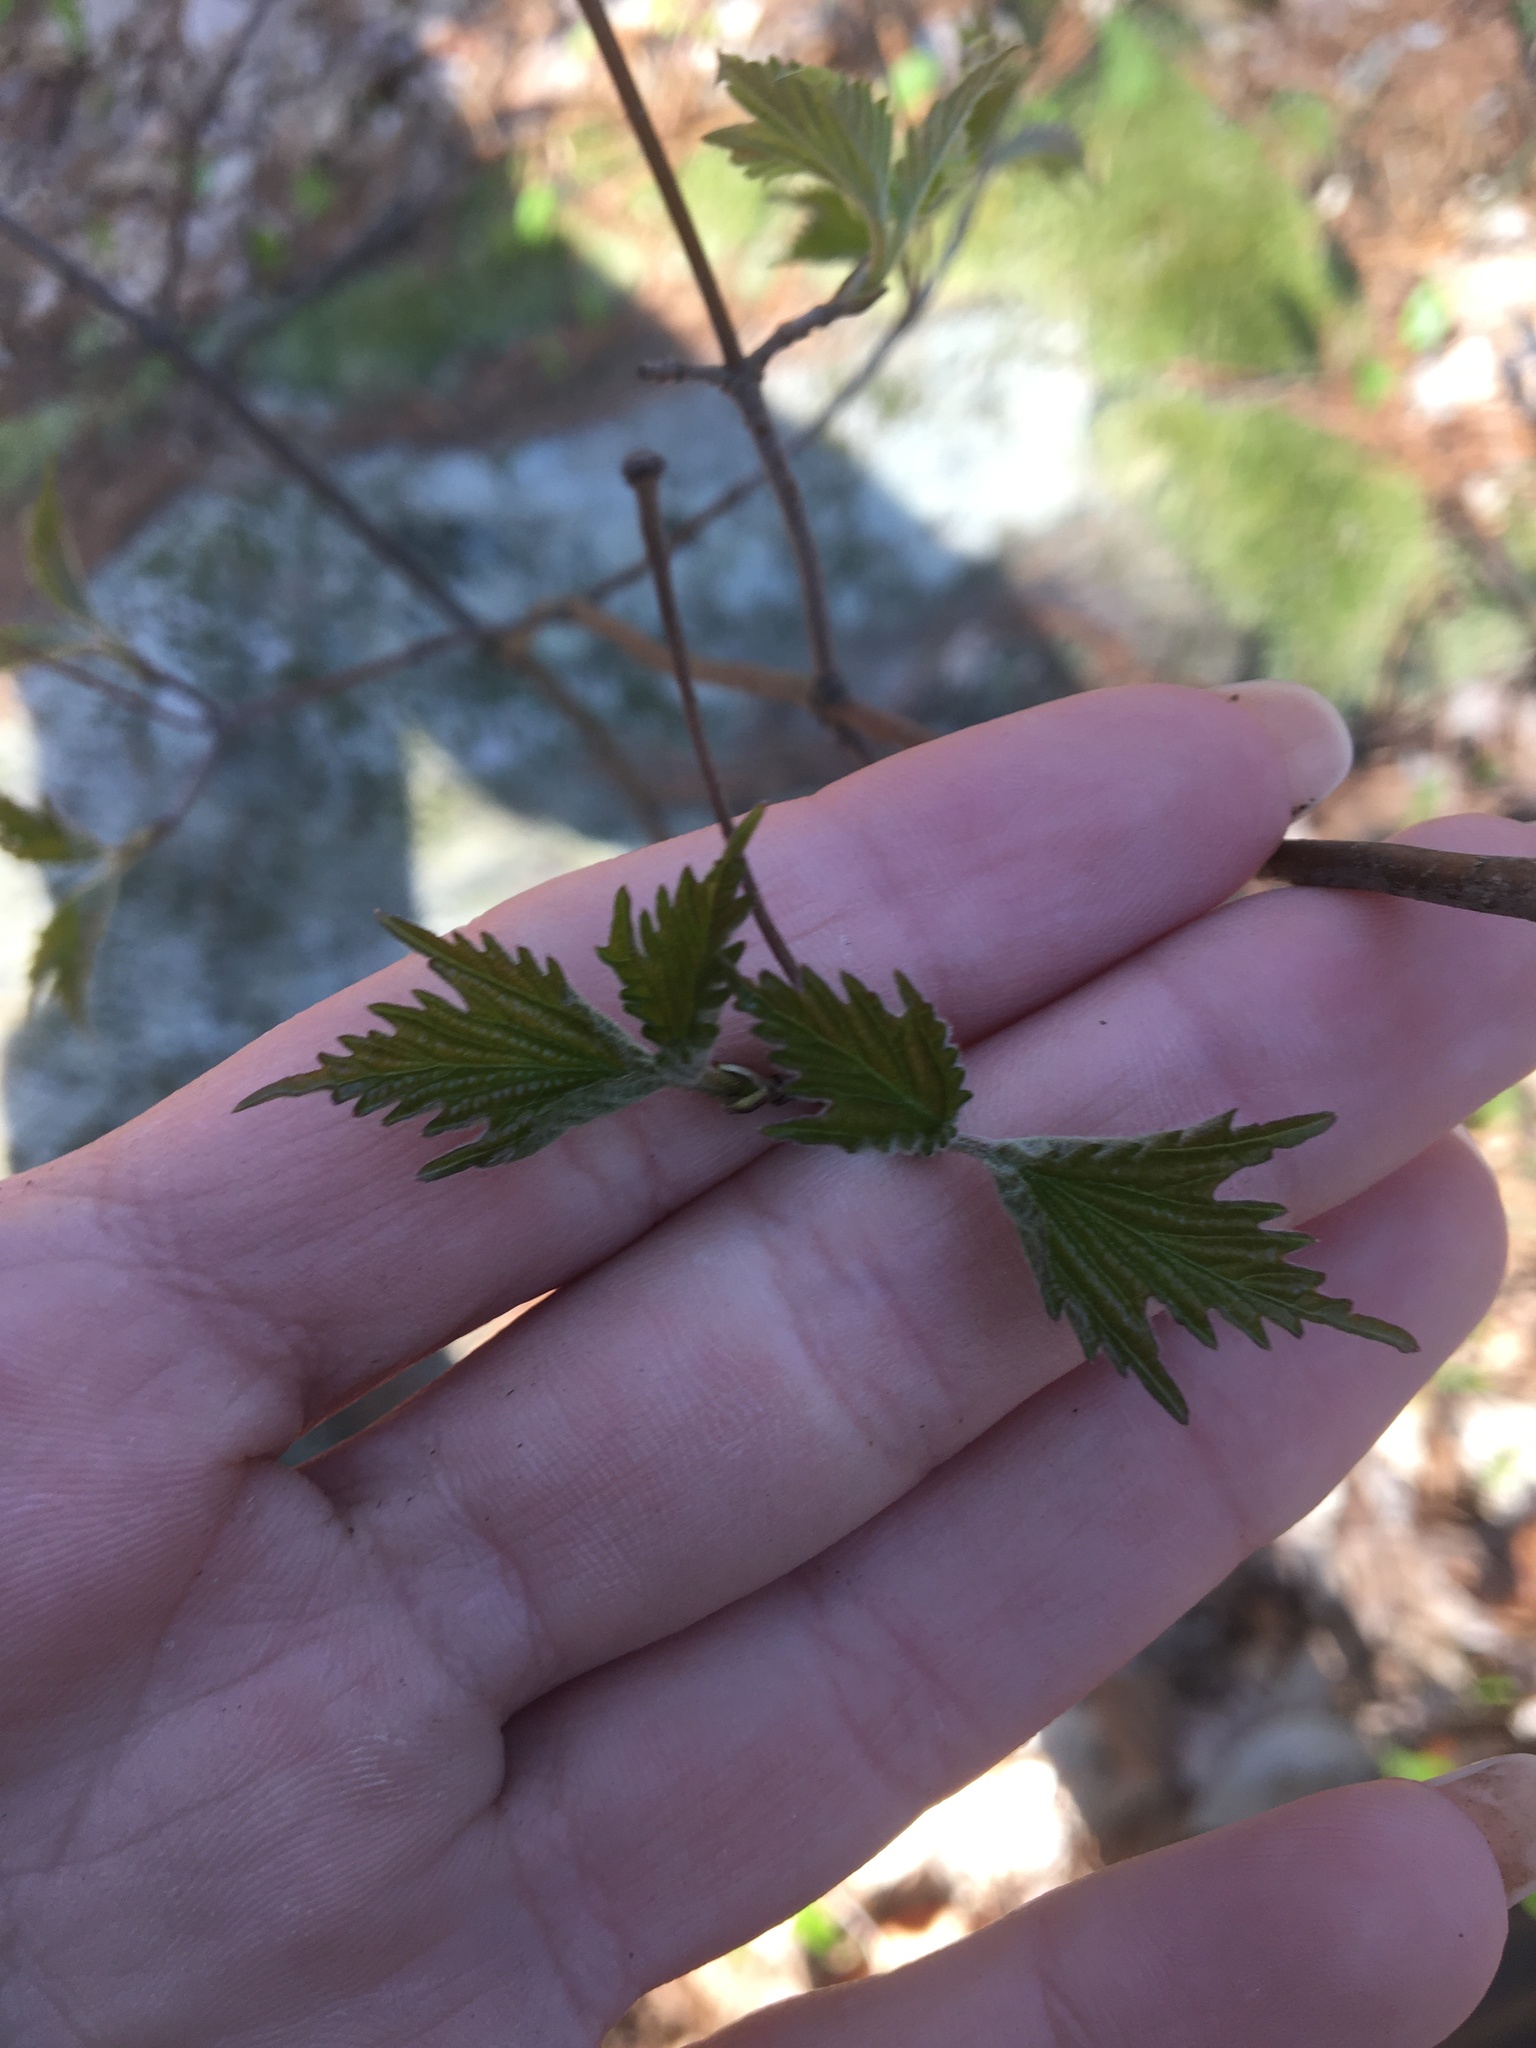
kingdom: Plantae
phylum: Tracheophyta
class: Magnoliopsida
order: Dipsacales
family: Viburnaceae
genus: Viburnum
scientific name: Viburnum acerifolium
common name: Dockmackie
